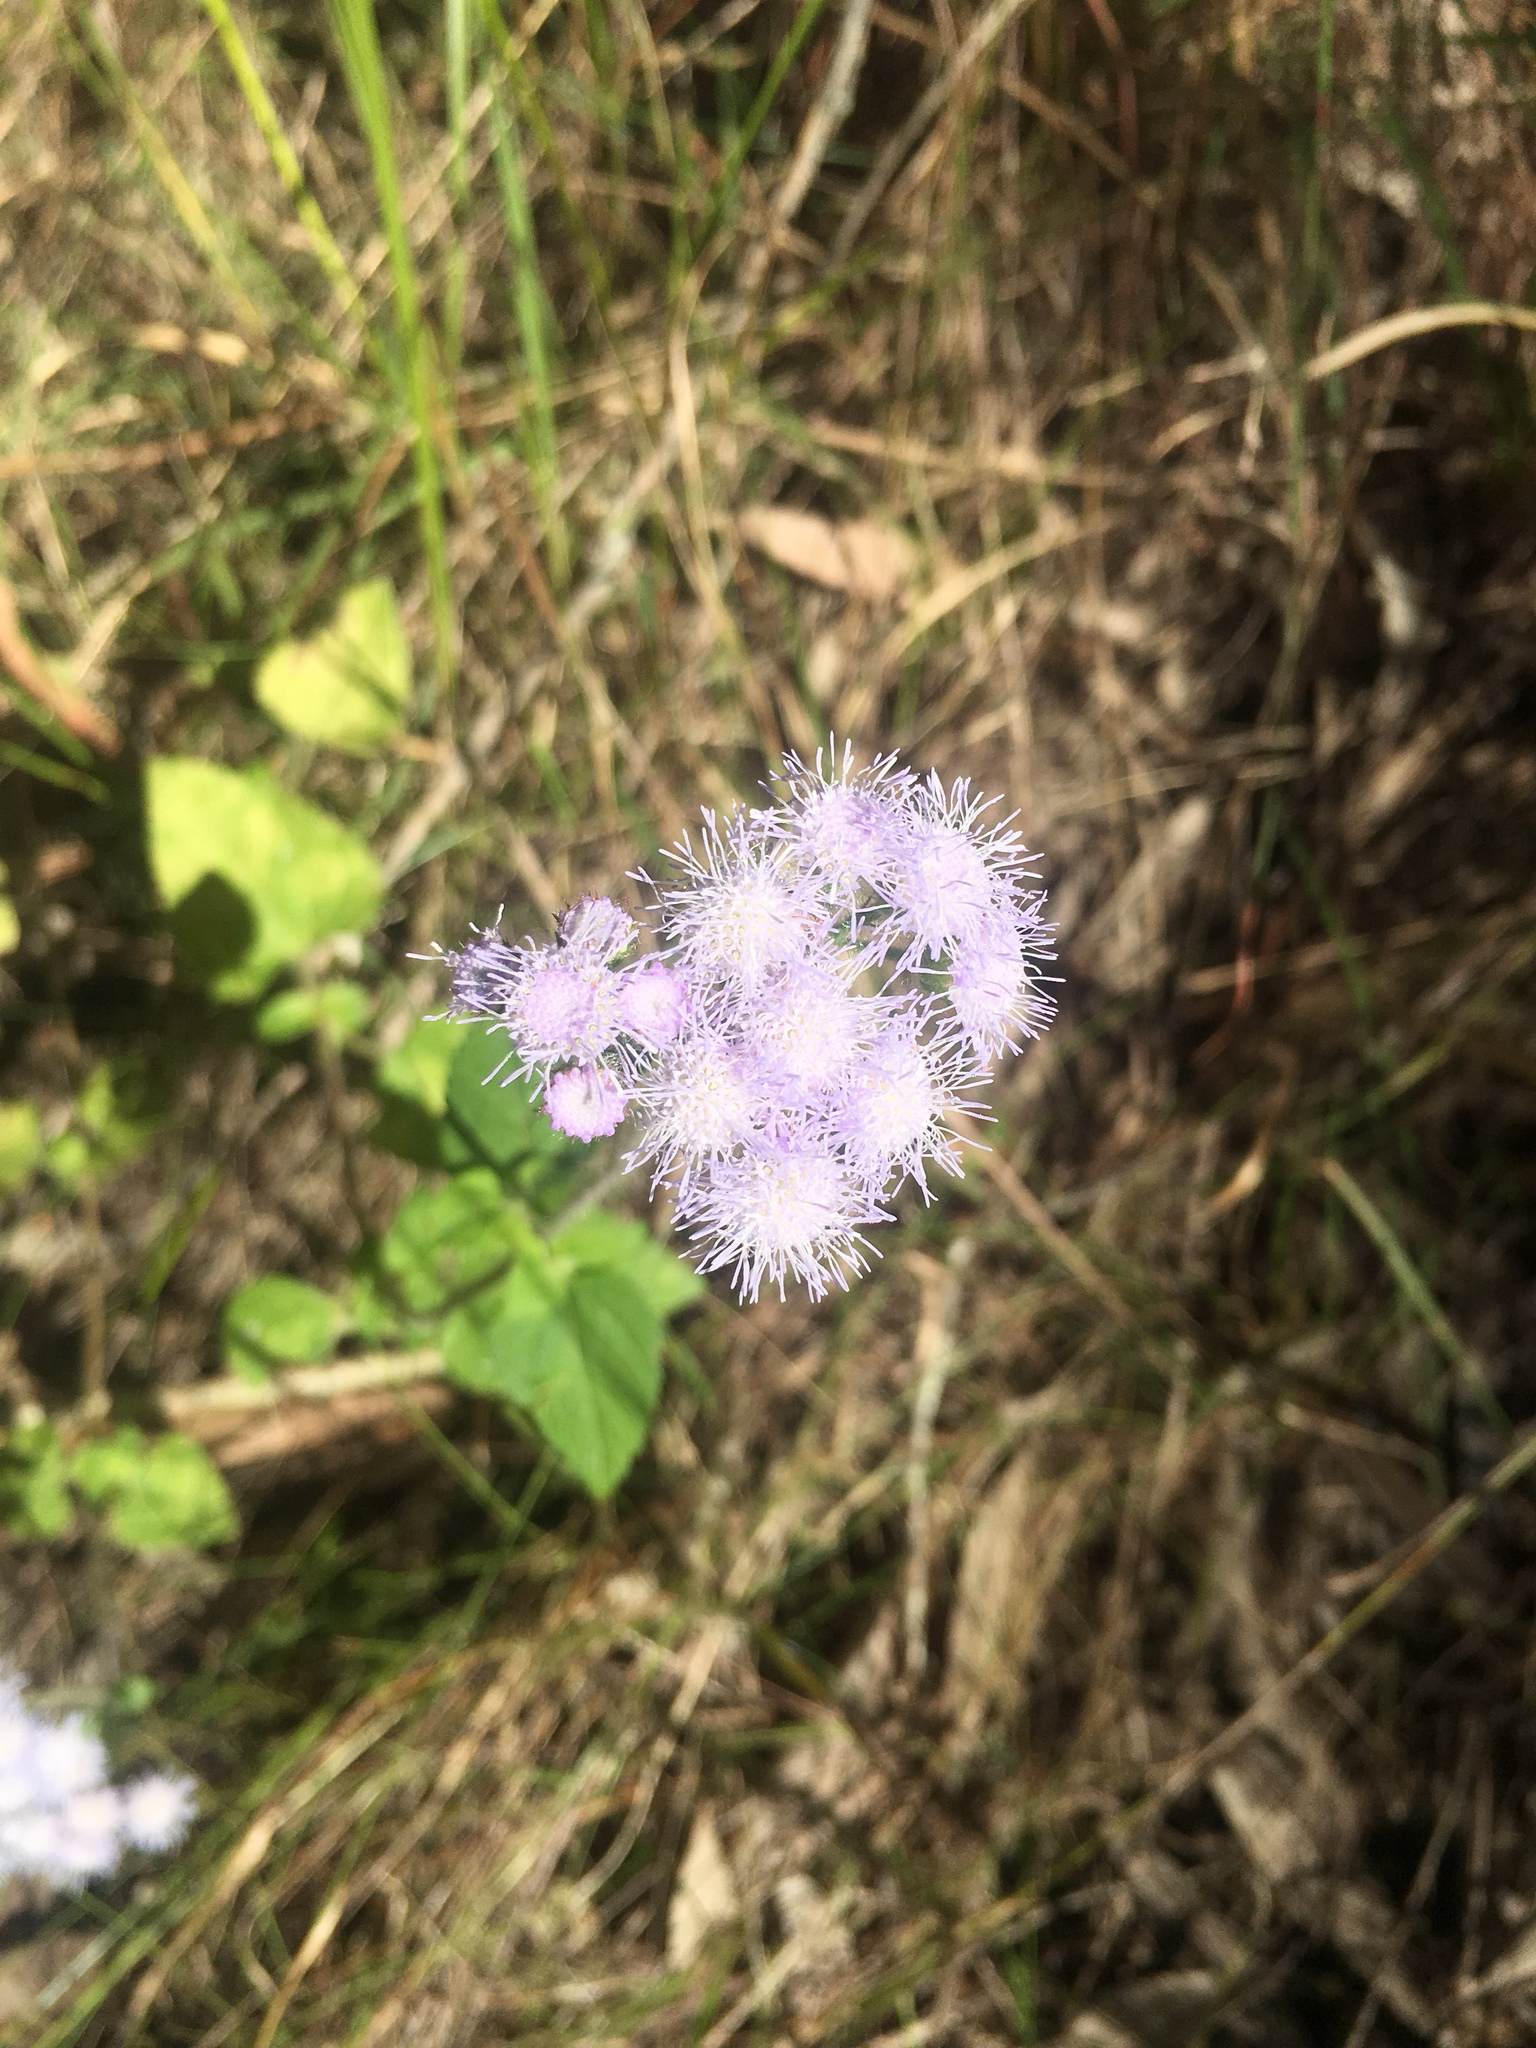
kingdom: Plantae
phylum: Tracheophyta
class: Magnoliopsida
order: Asterales
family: Asteraceae
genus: Ageratum
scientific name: Ageratum houstonianum
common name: Bluemink
